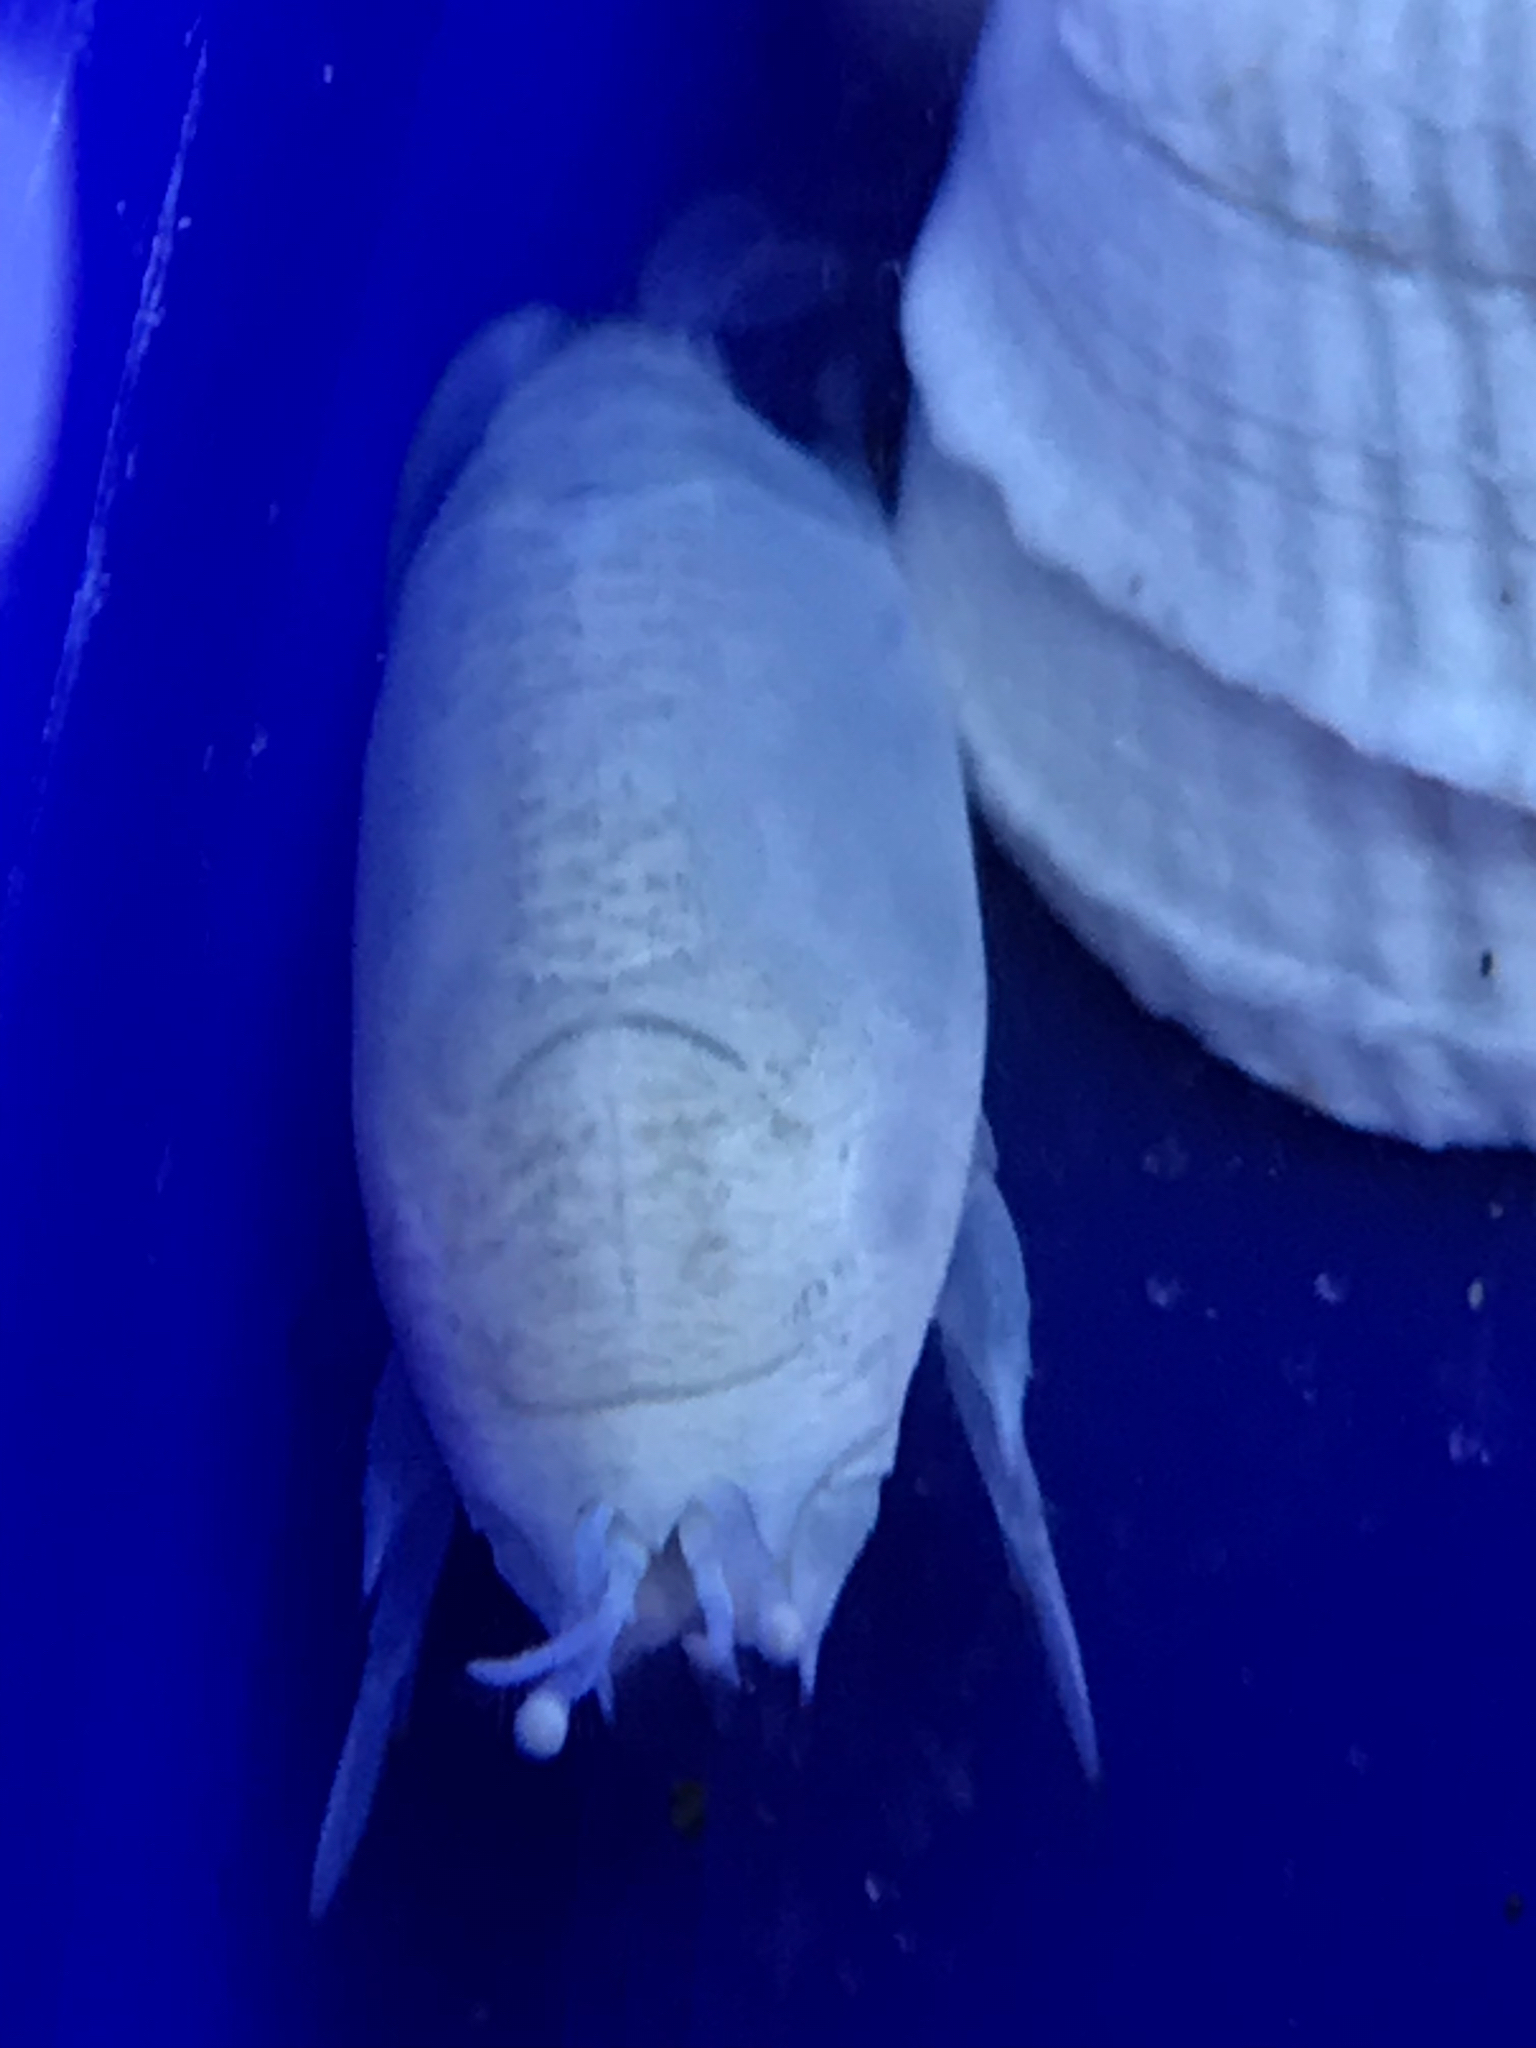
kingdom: Animalia
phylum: Arthropoda
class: Malacostraca
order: Decapoda
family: Hippidae
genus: Emerita
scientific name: Emerita talpoida
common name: Atlantic sand crab
